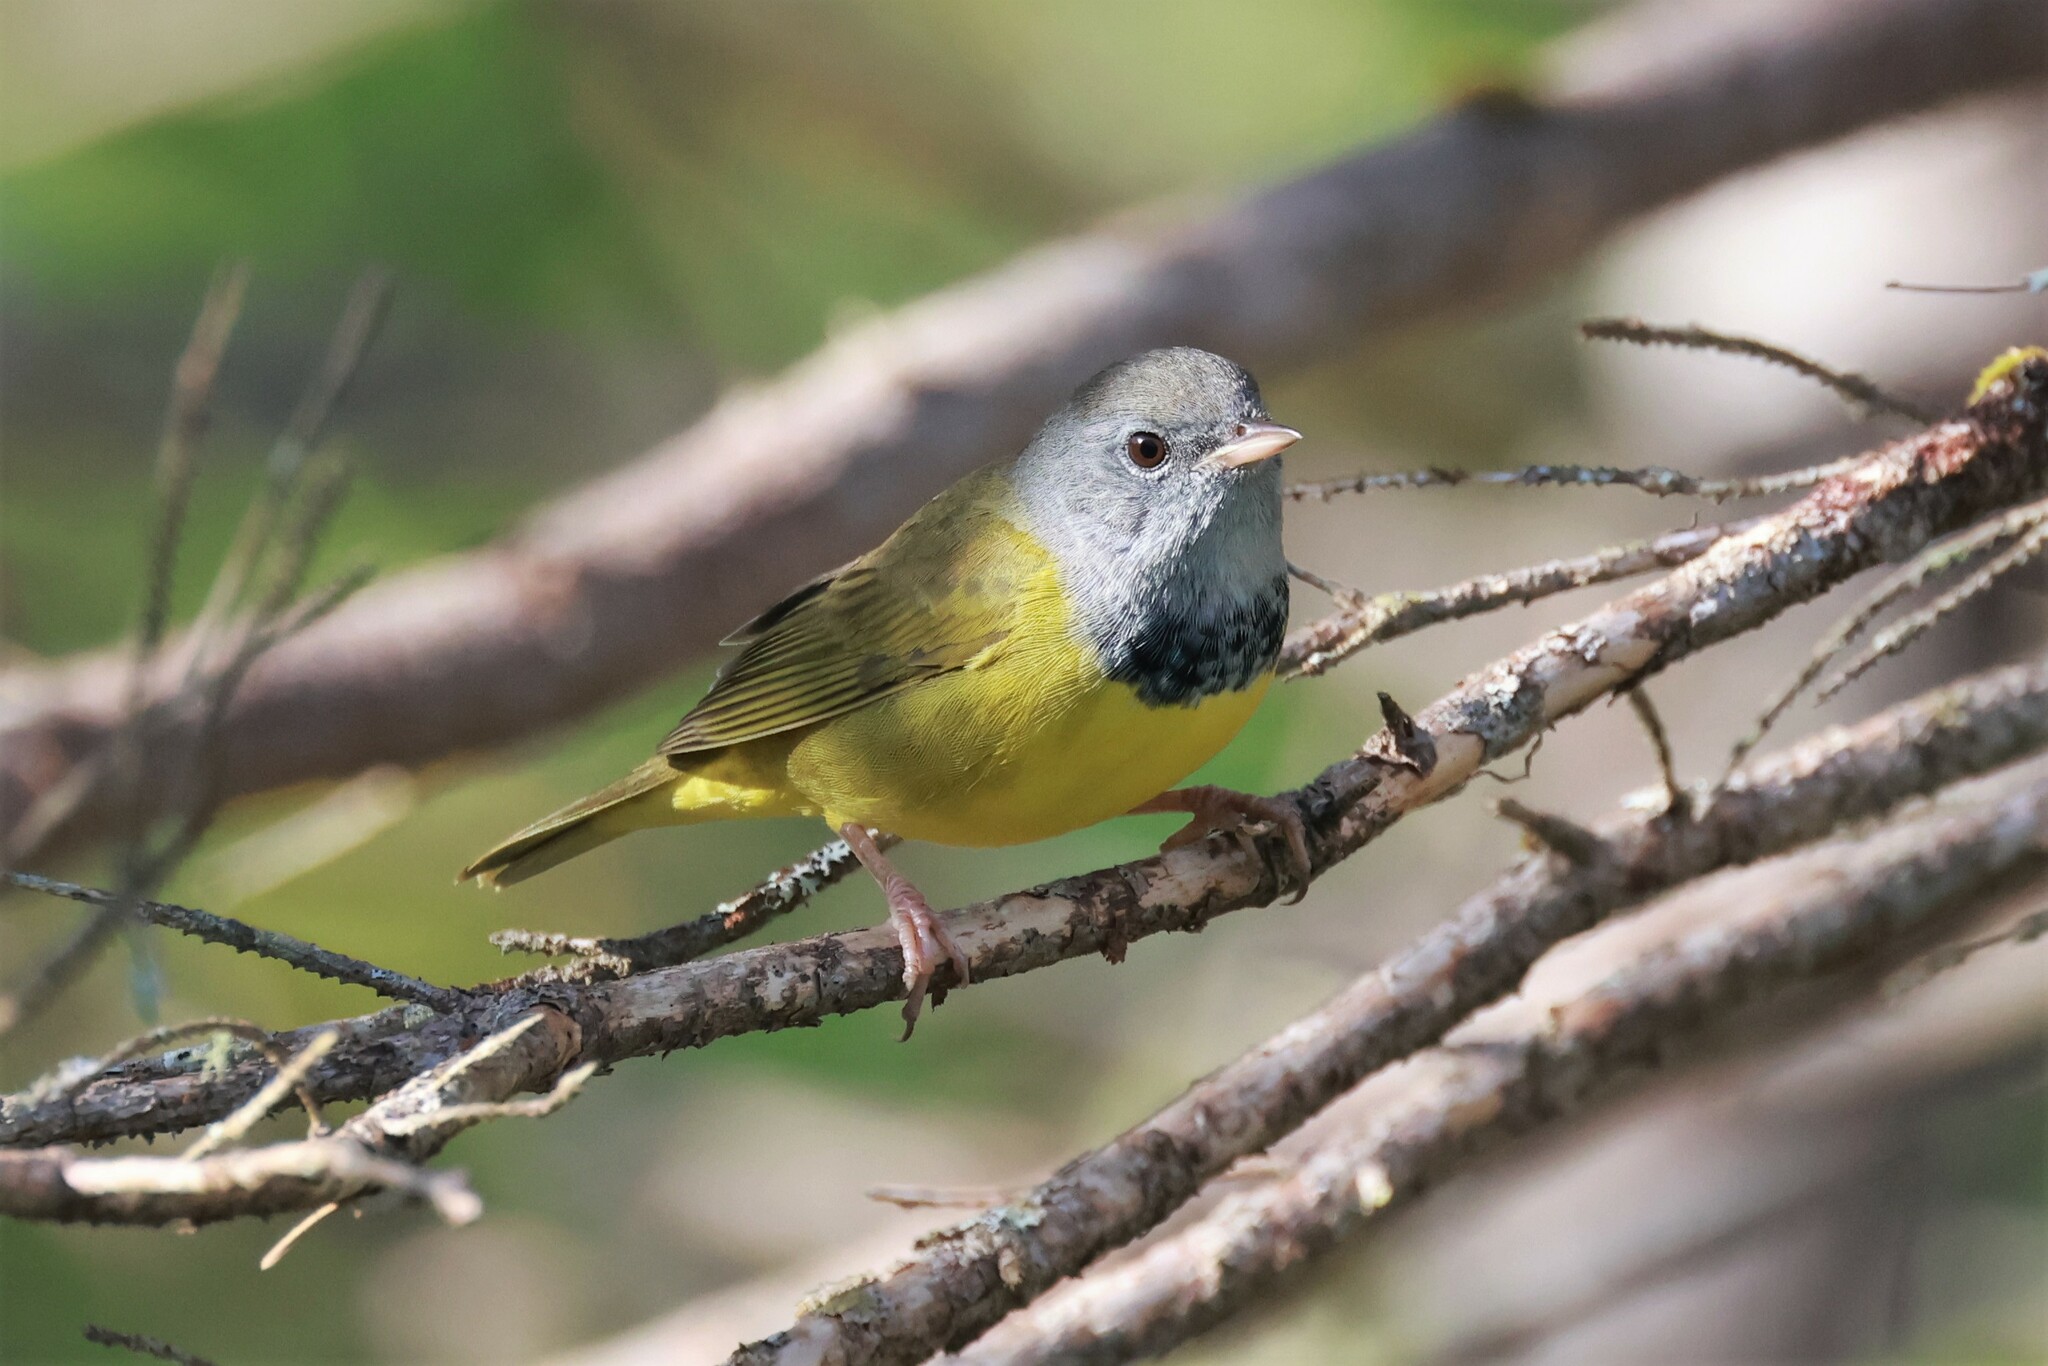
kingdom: Animalia
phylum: Chordata
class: Aves
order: Passeriformes
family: Parulidae
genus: Geothlypis
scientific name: Geothlypis philadelphia
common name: Mourning warbler
